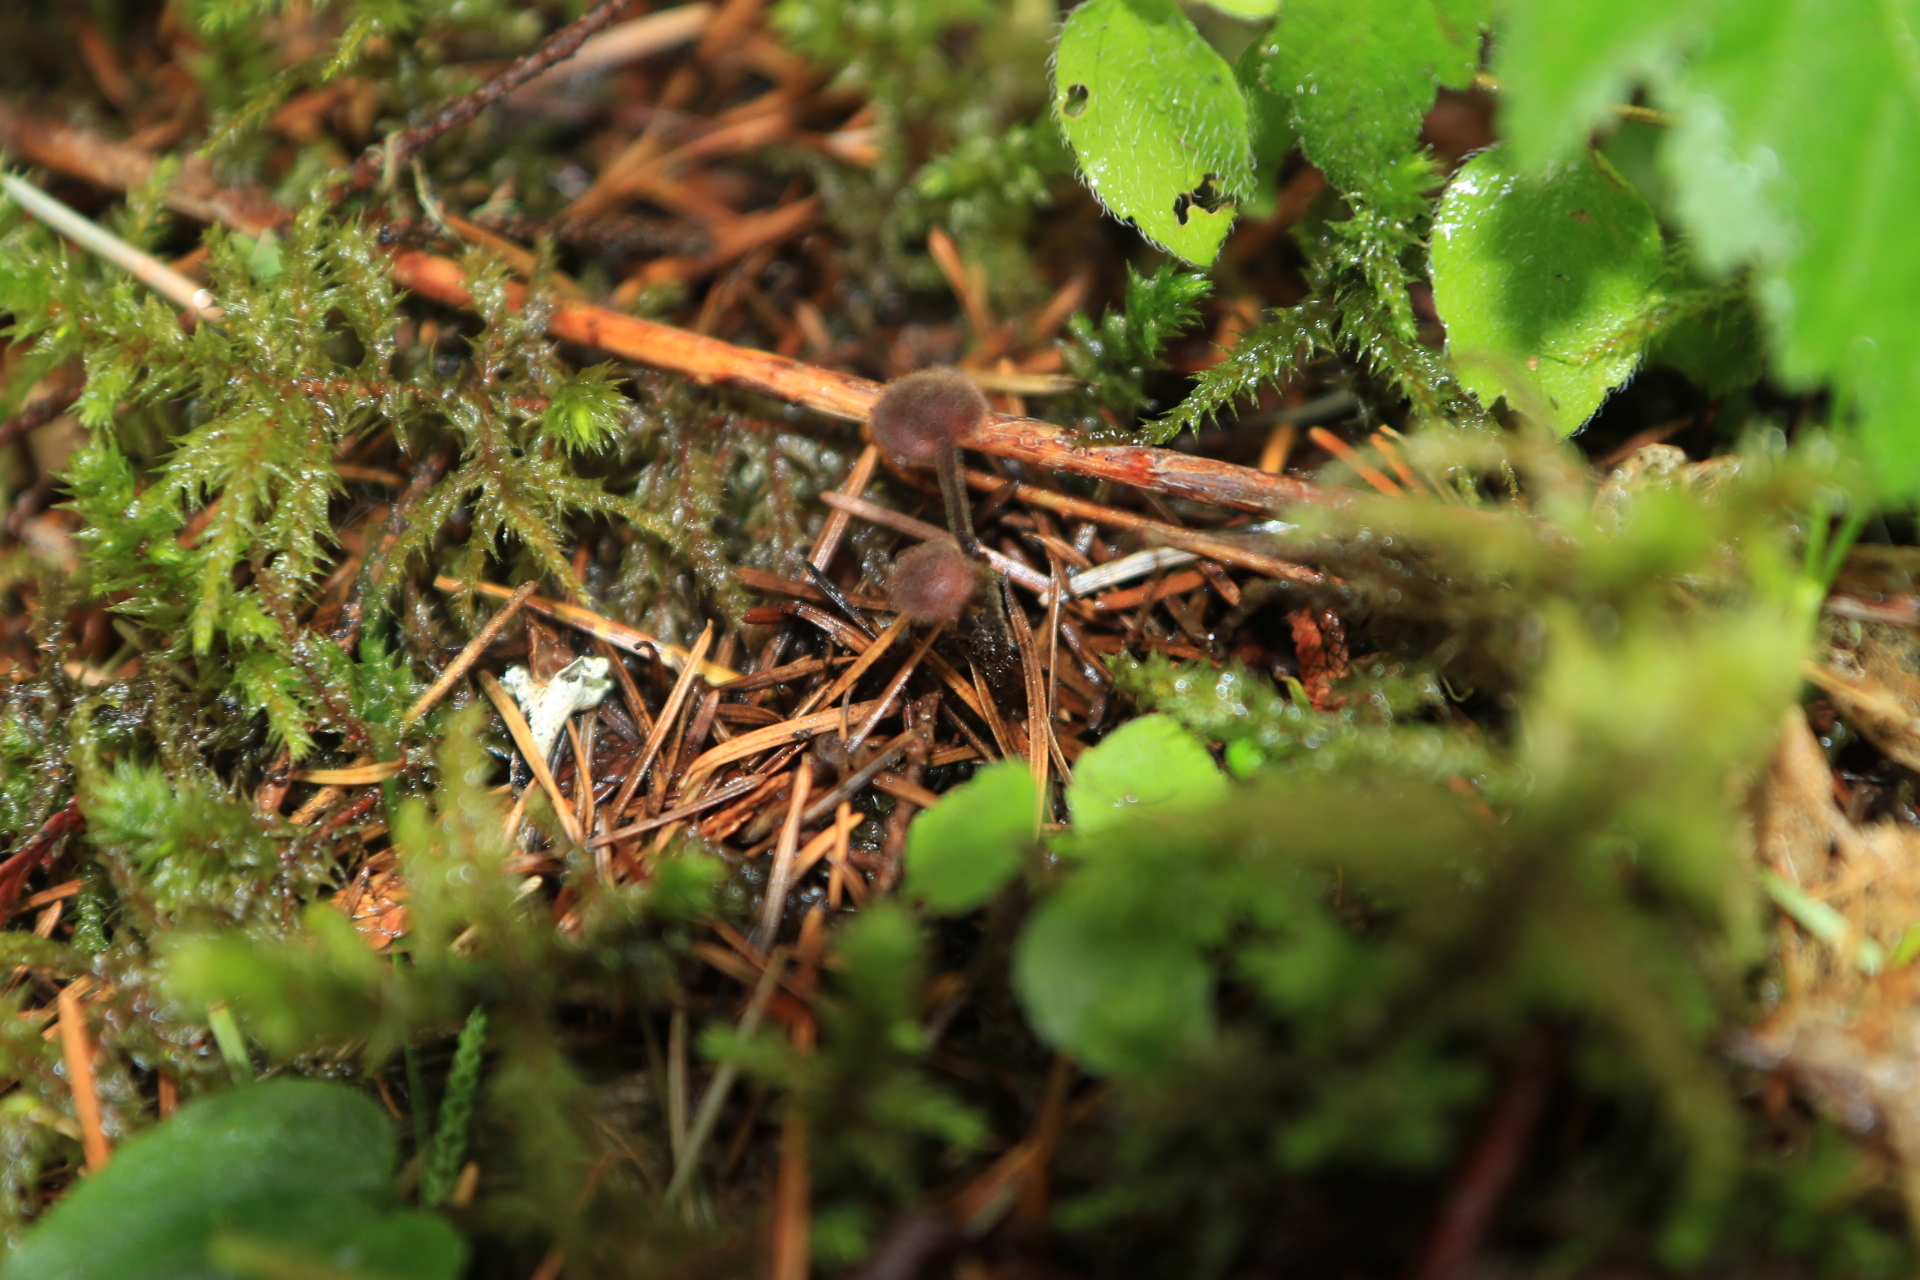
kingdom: Fungi
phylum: Basidiomycota
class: Agaricomycetes
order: Russulales
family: Auriscalpiaceae
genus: Auriscalpium
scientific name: Auriscalpium vulgare
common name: Earpick fungus
